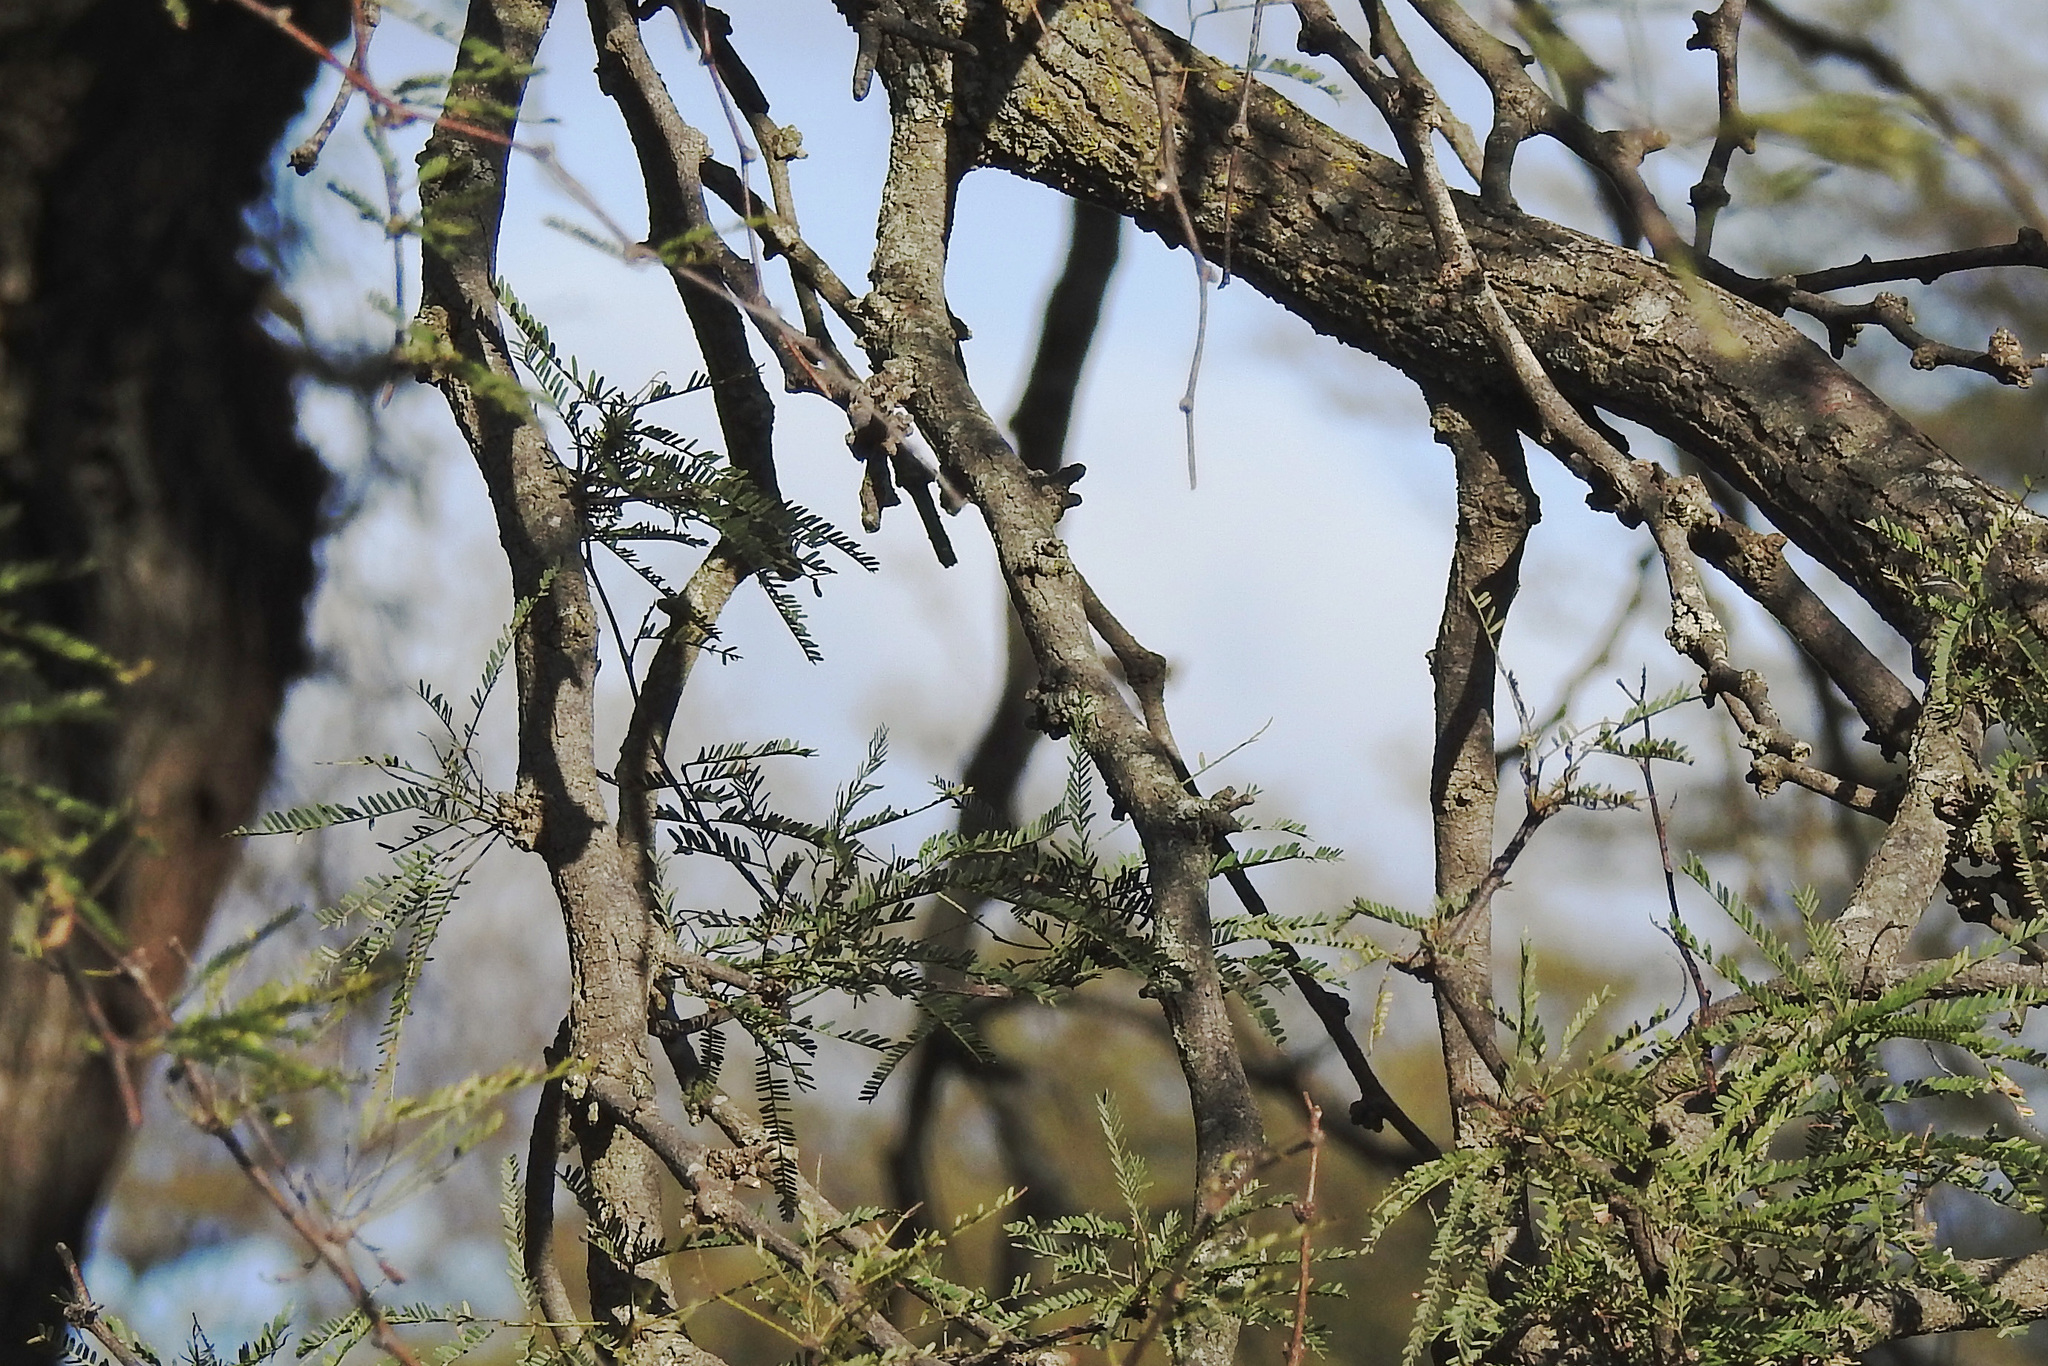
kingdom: Plantae
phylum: Tracheophyta
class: Magnoliopsida
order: Fabales
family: Fabaceae
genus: Prosopis
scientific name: Prosopis caldenia
